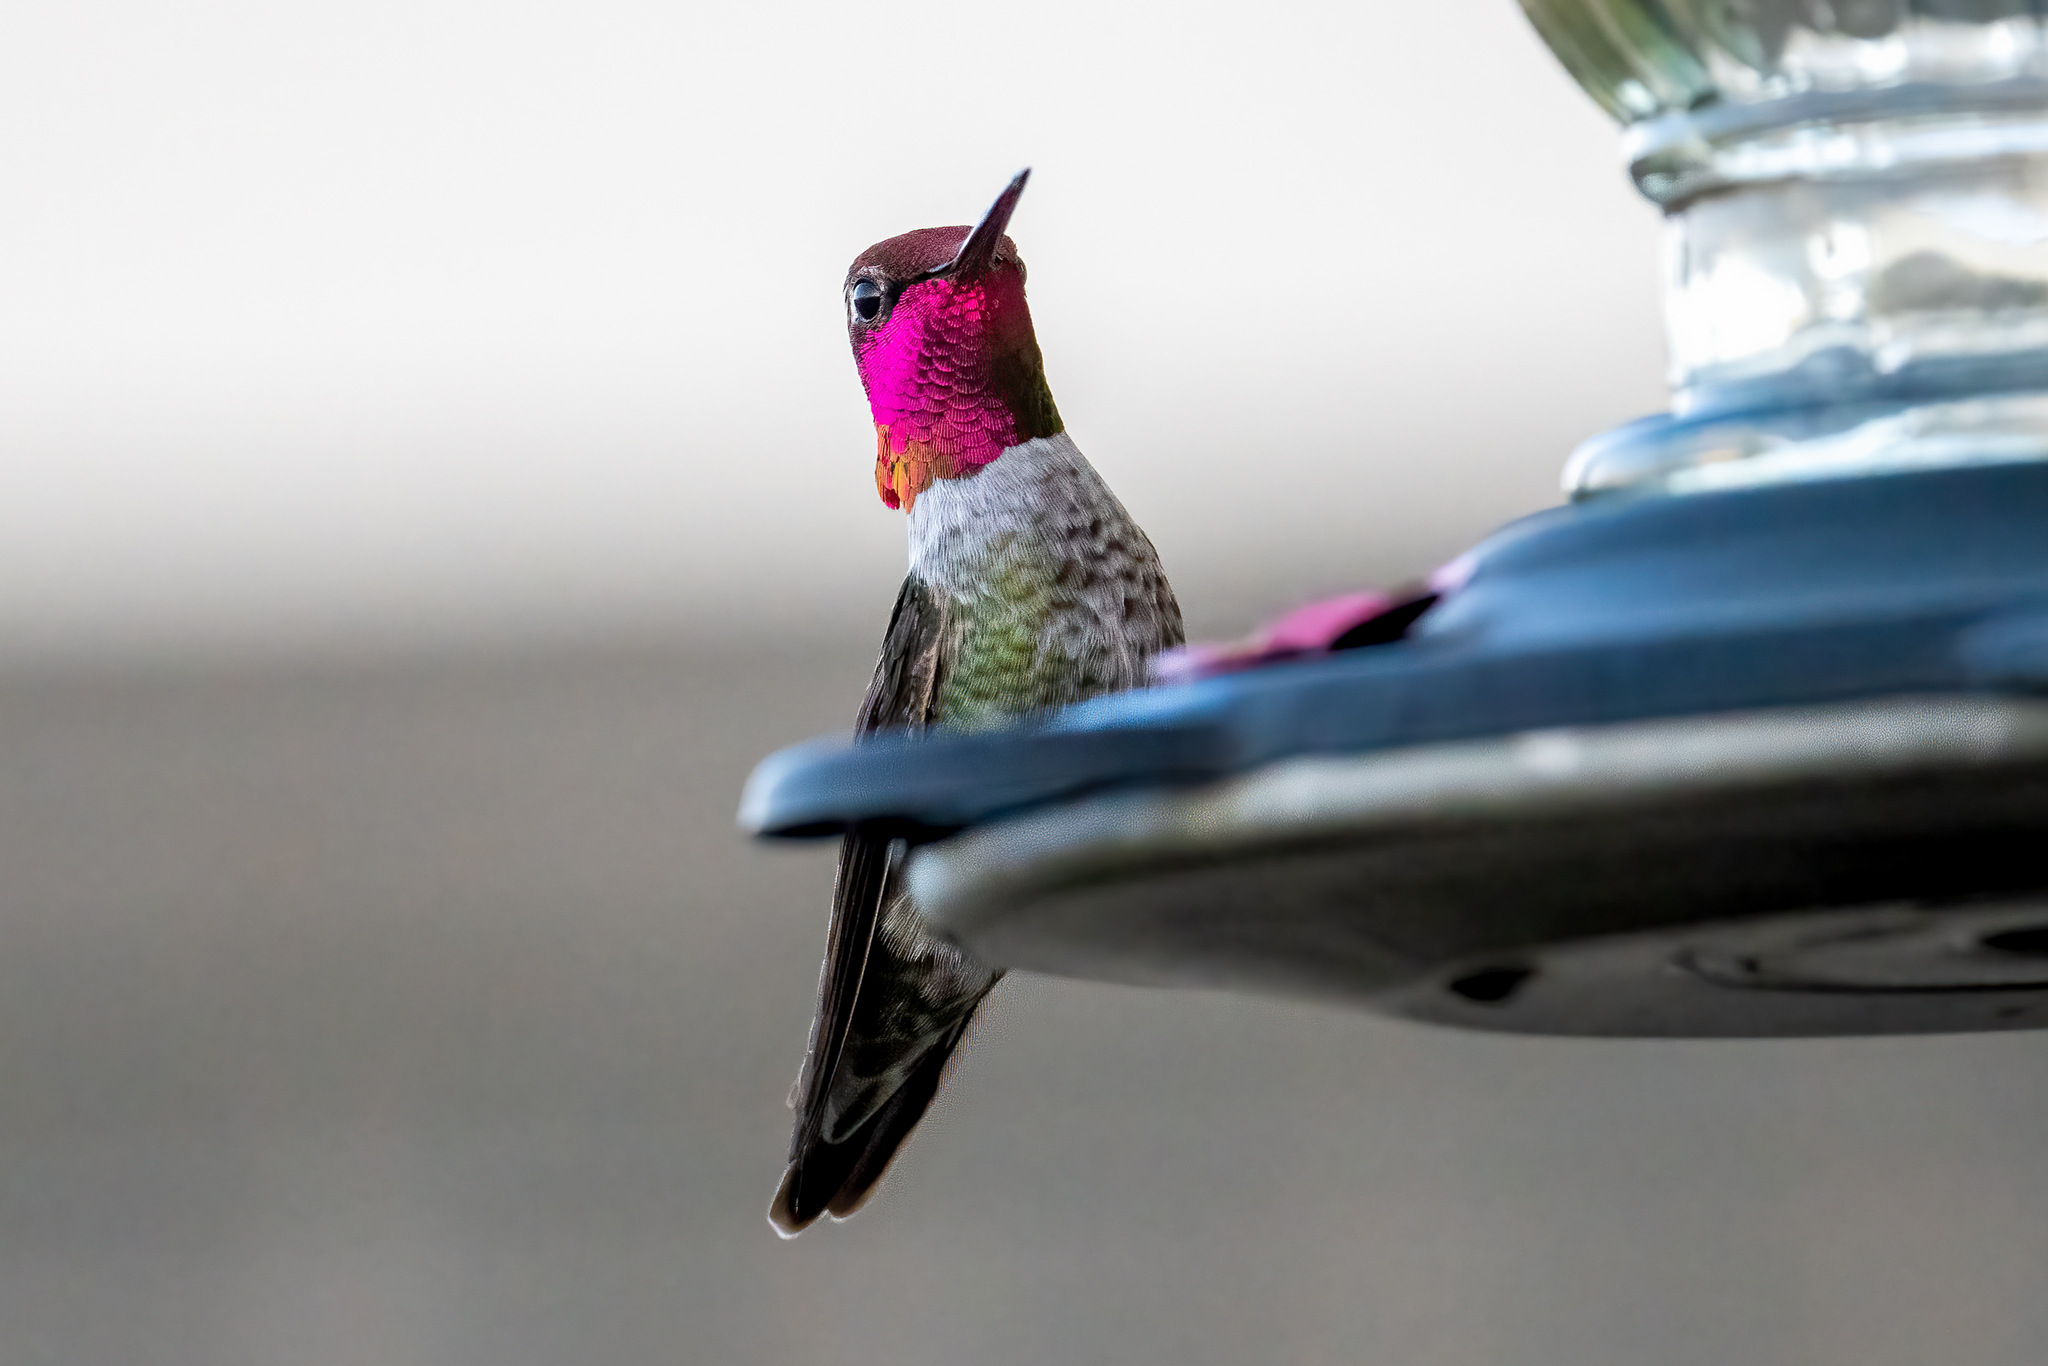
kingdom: Animalia
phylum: Chordata
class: Aves
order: Apodiformes
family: Trochilidae
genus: Calypte
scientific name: Calypte anna
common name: Anna's hummingbird
